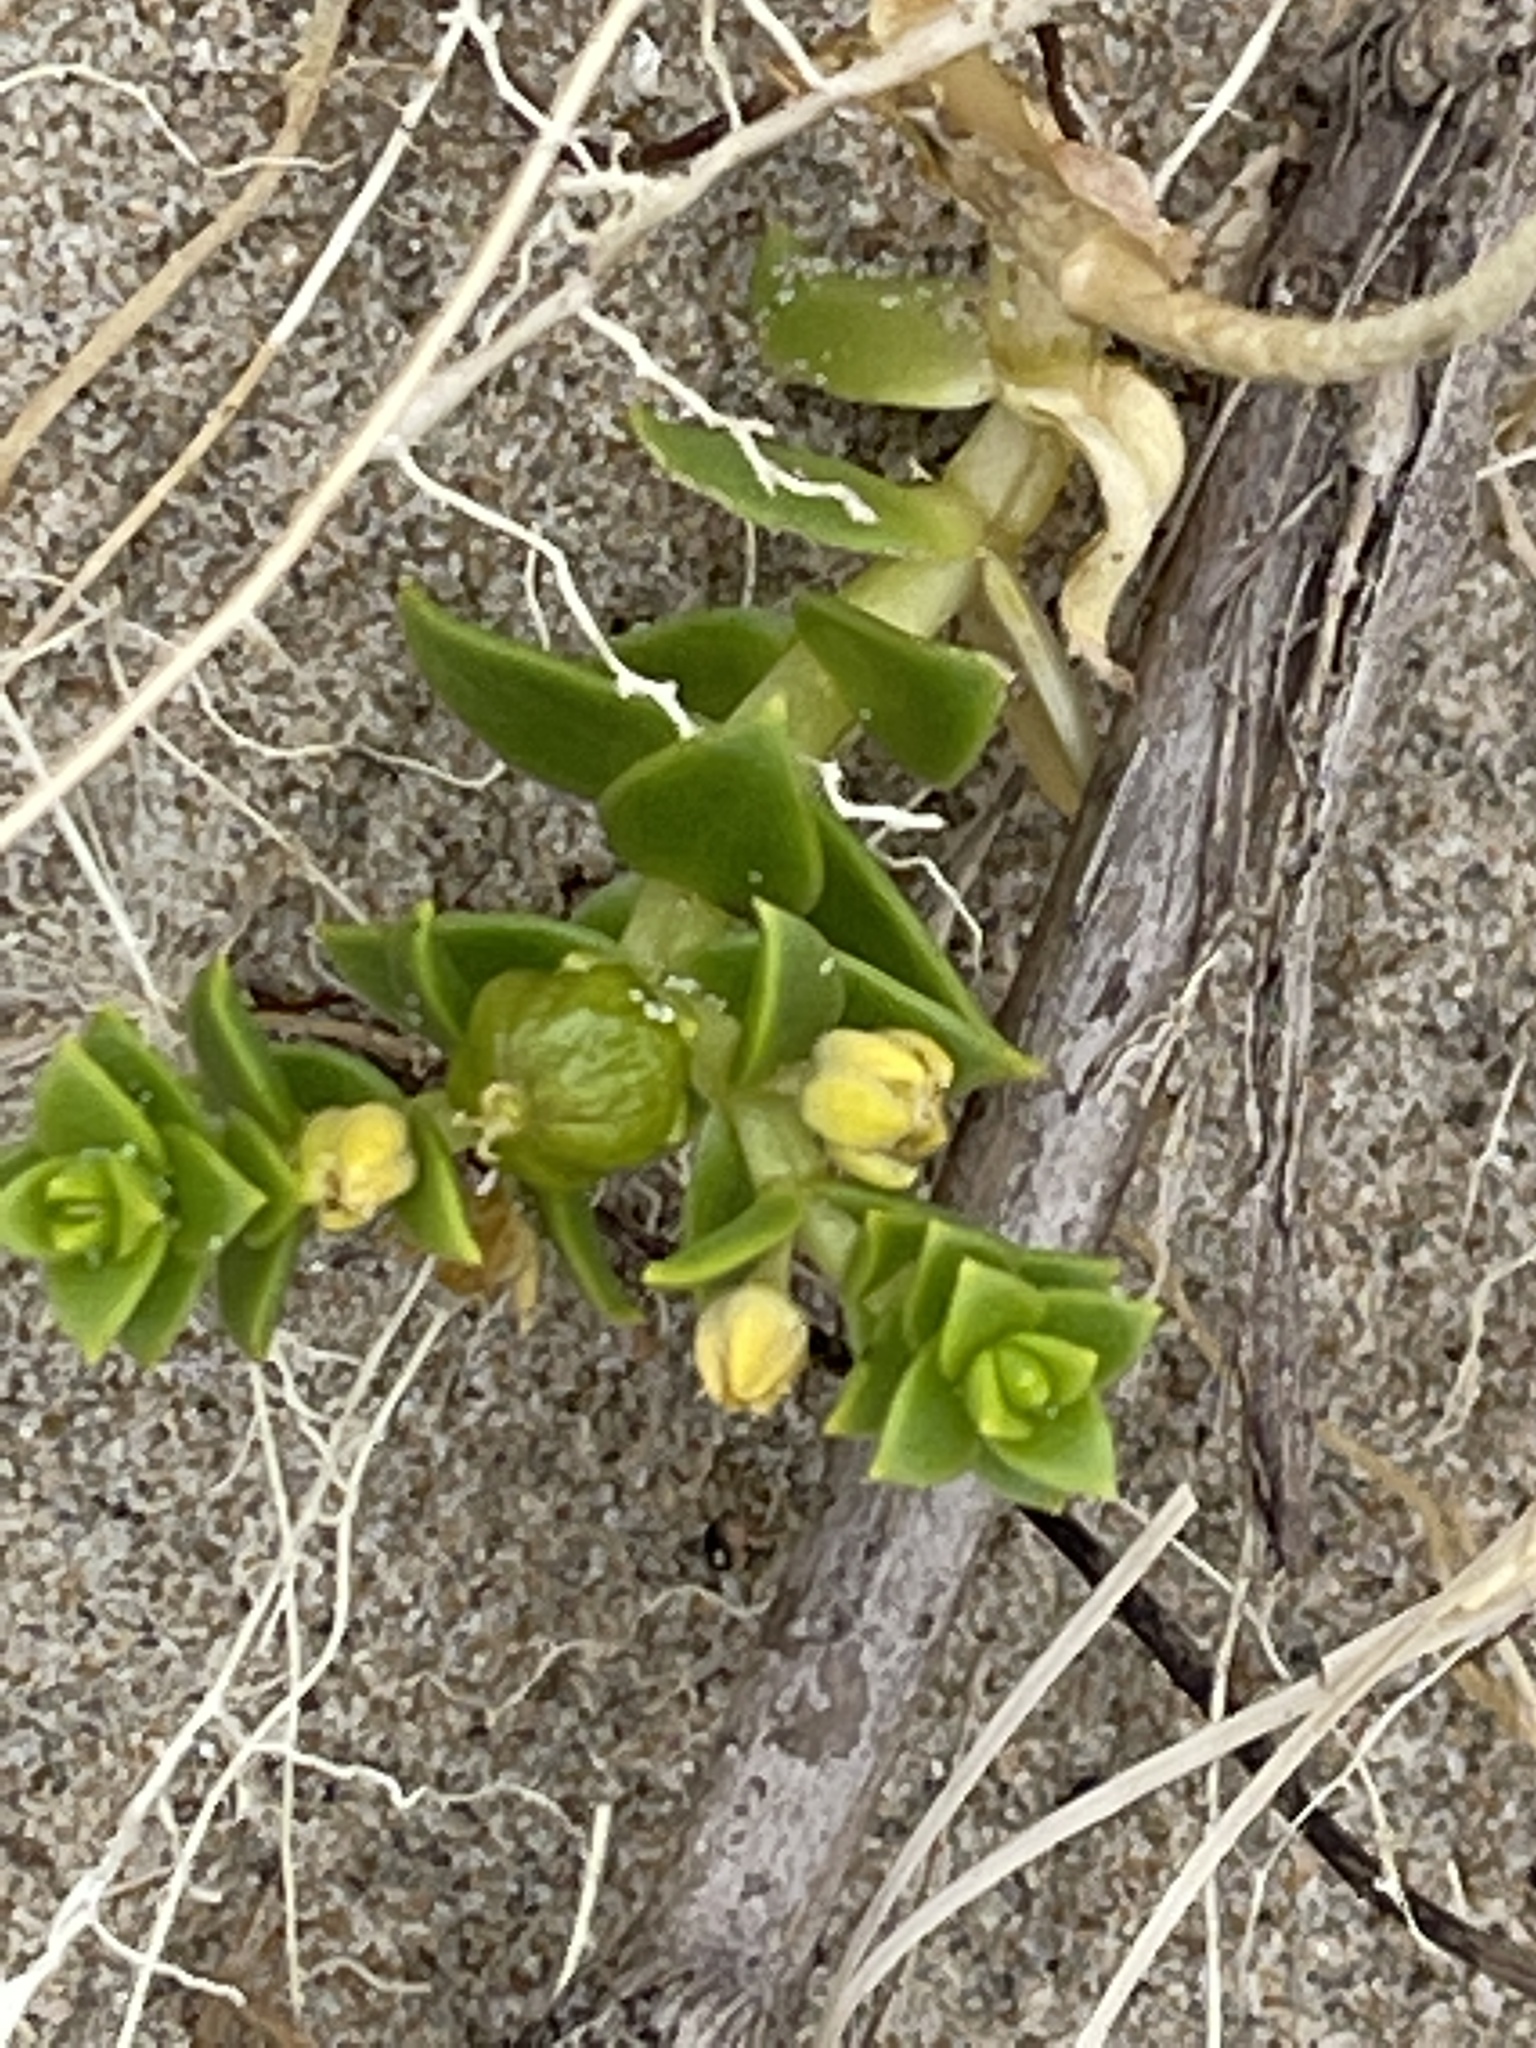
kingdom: Plantae
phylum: Tracheophyta
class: Magnoliopsida
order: Caryophyllales
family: Caryophyllaceae
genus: Honckenya
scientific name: Honckenya peploides
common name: Sea sandwort
